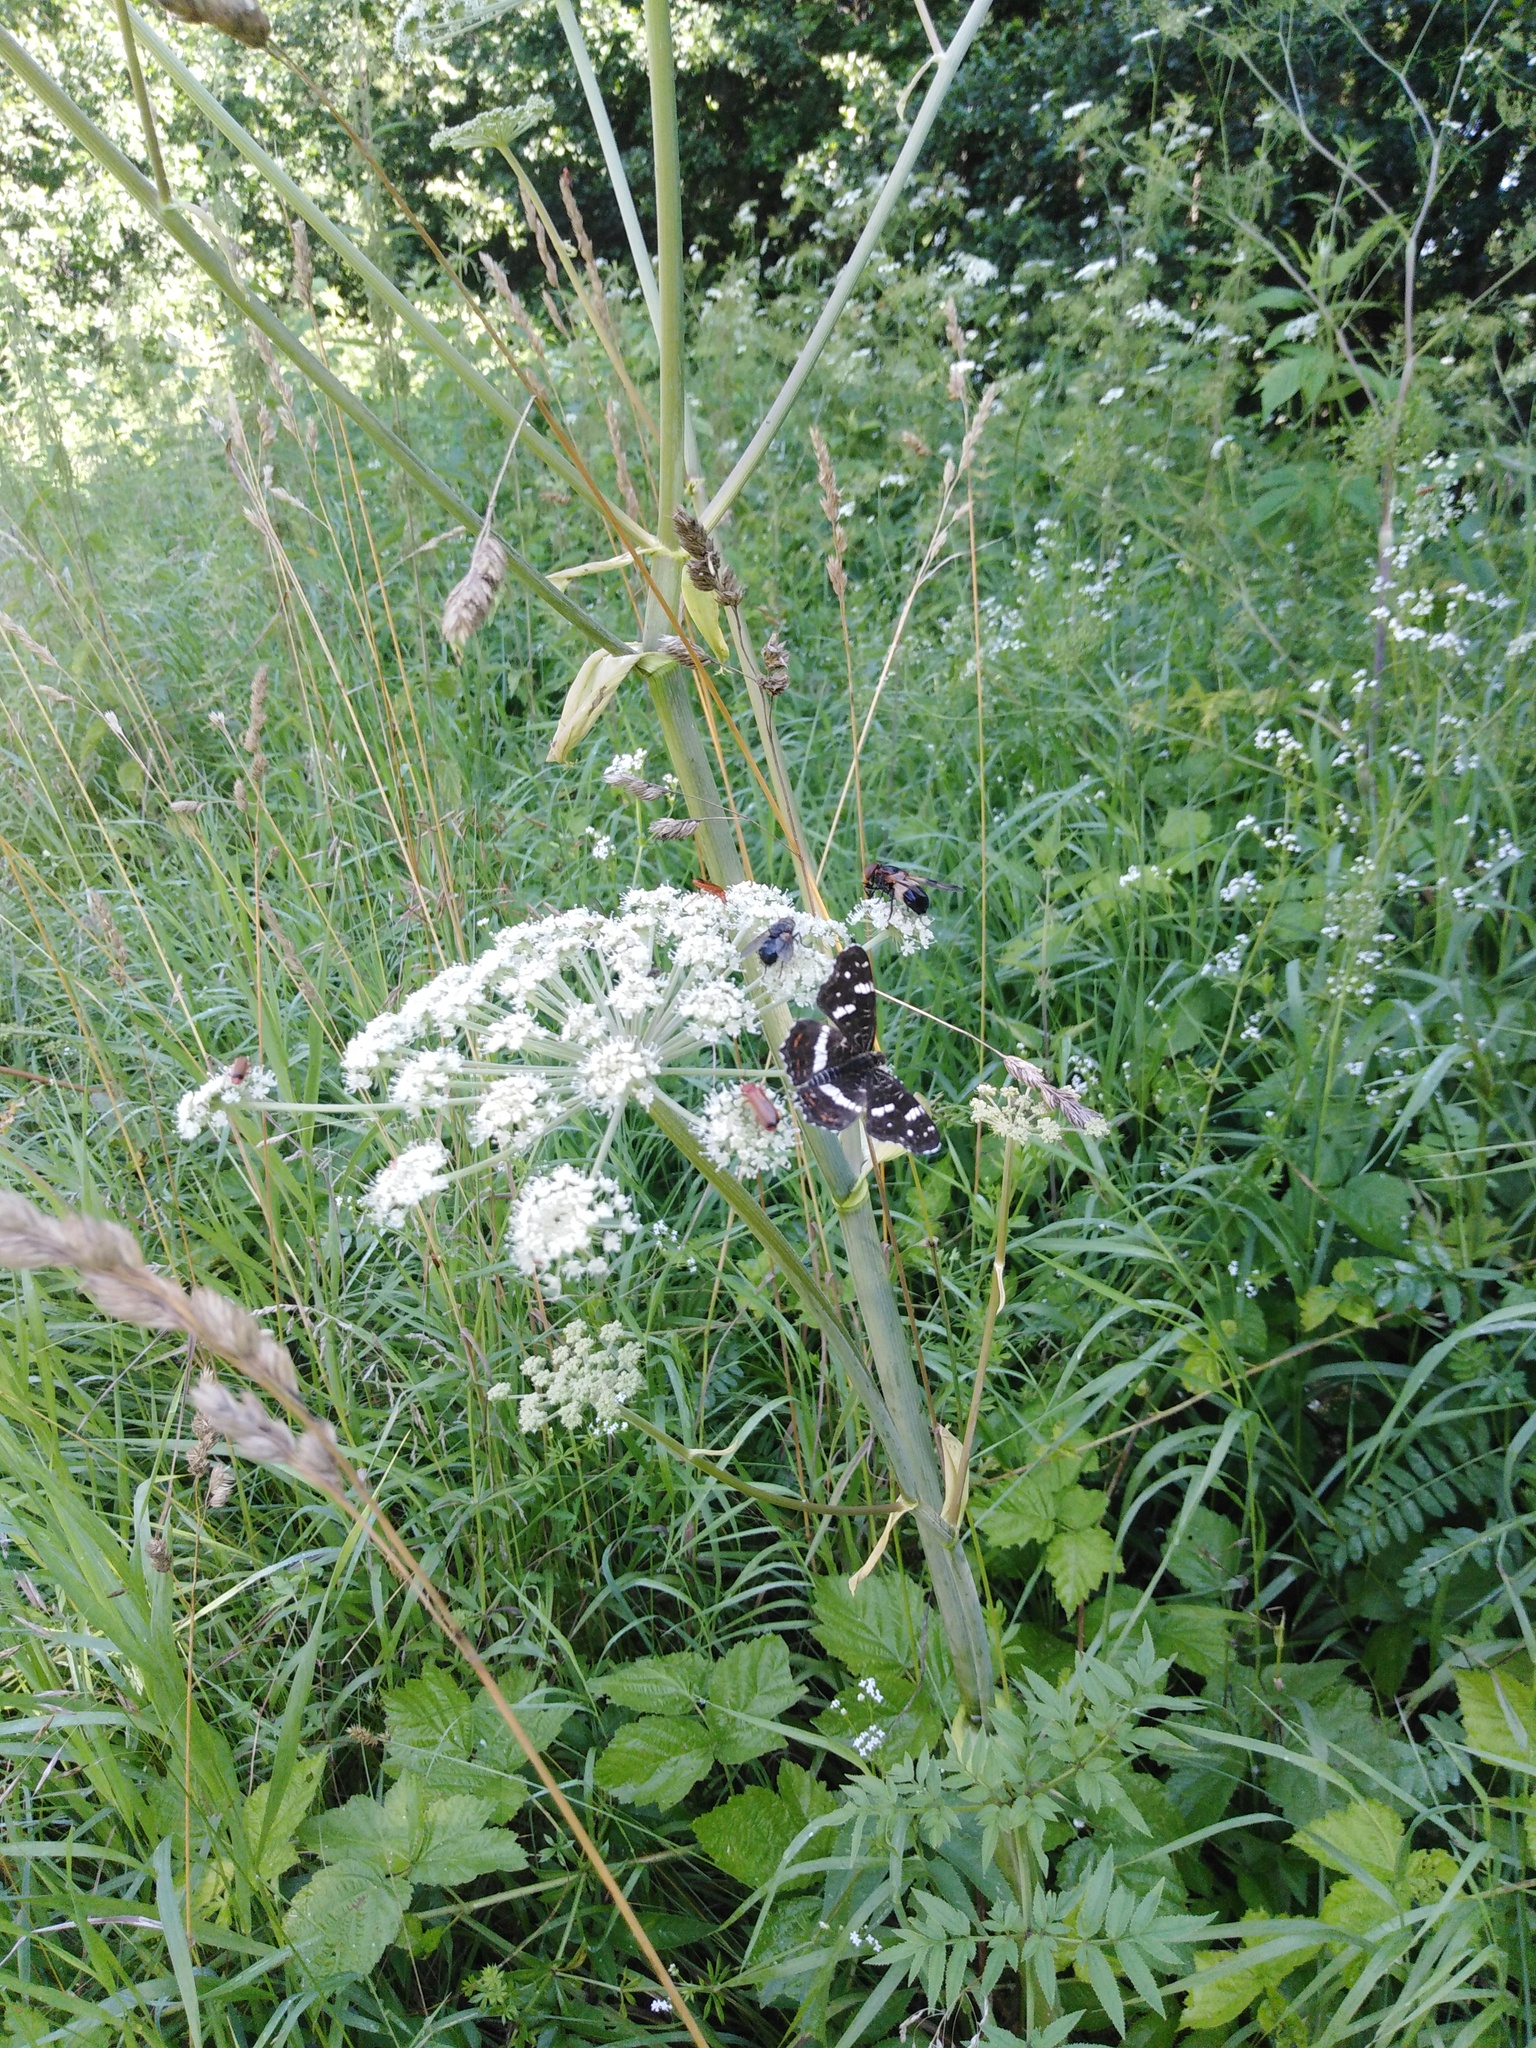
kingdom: Animalia
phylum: Arthropoda
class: Insecta
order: Lepidoptera
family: Nymphalidae
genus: Araschnia
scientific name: Araschnia levana
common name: Map butterfly
